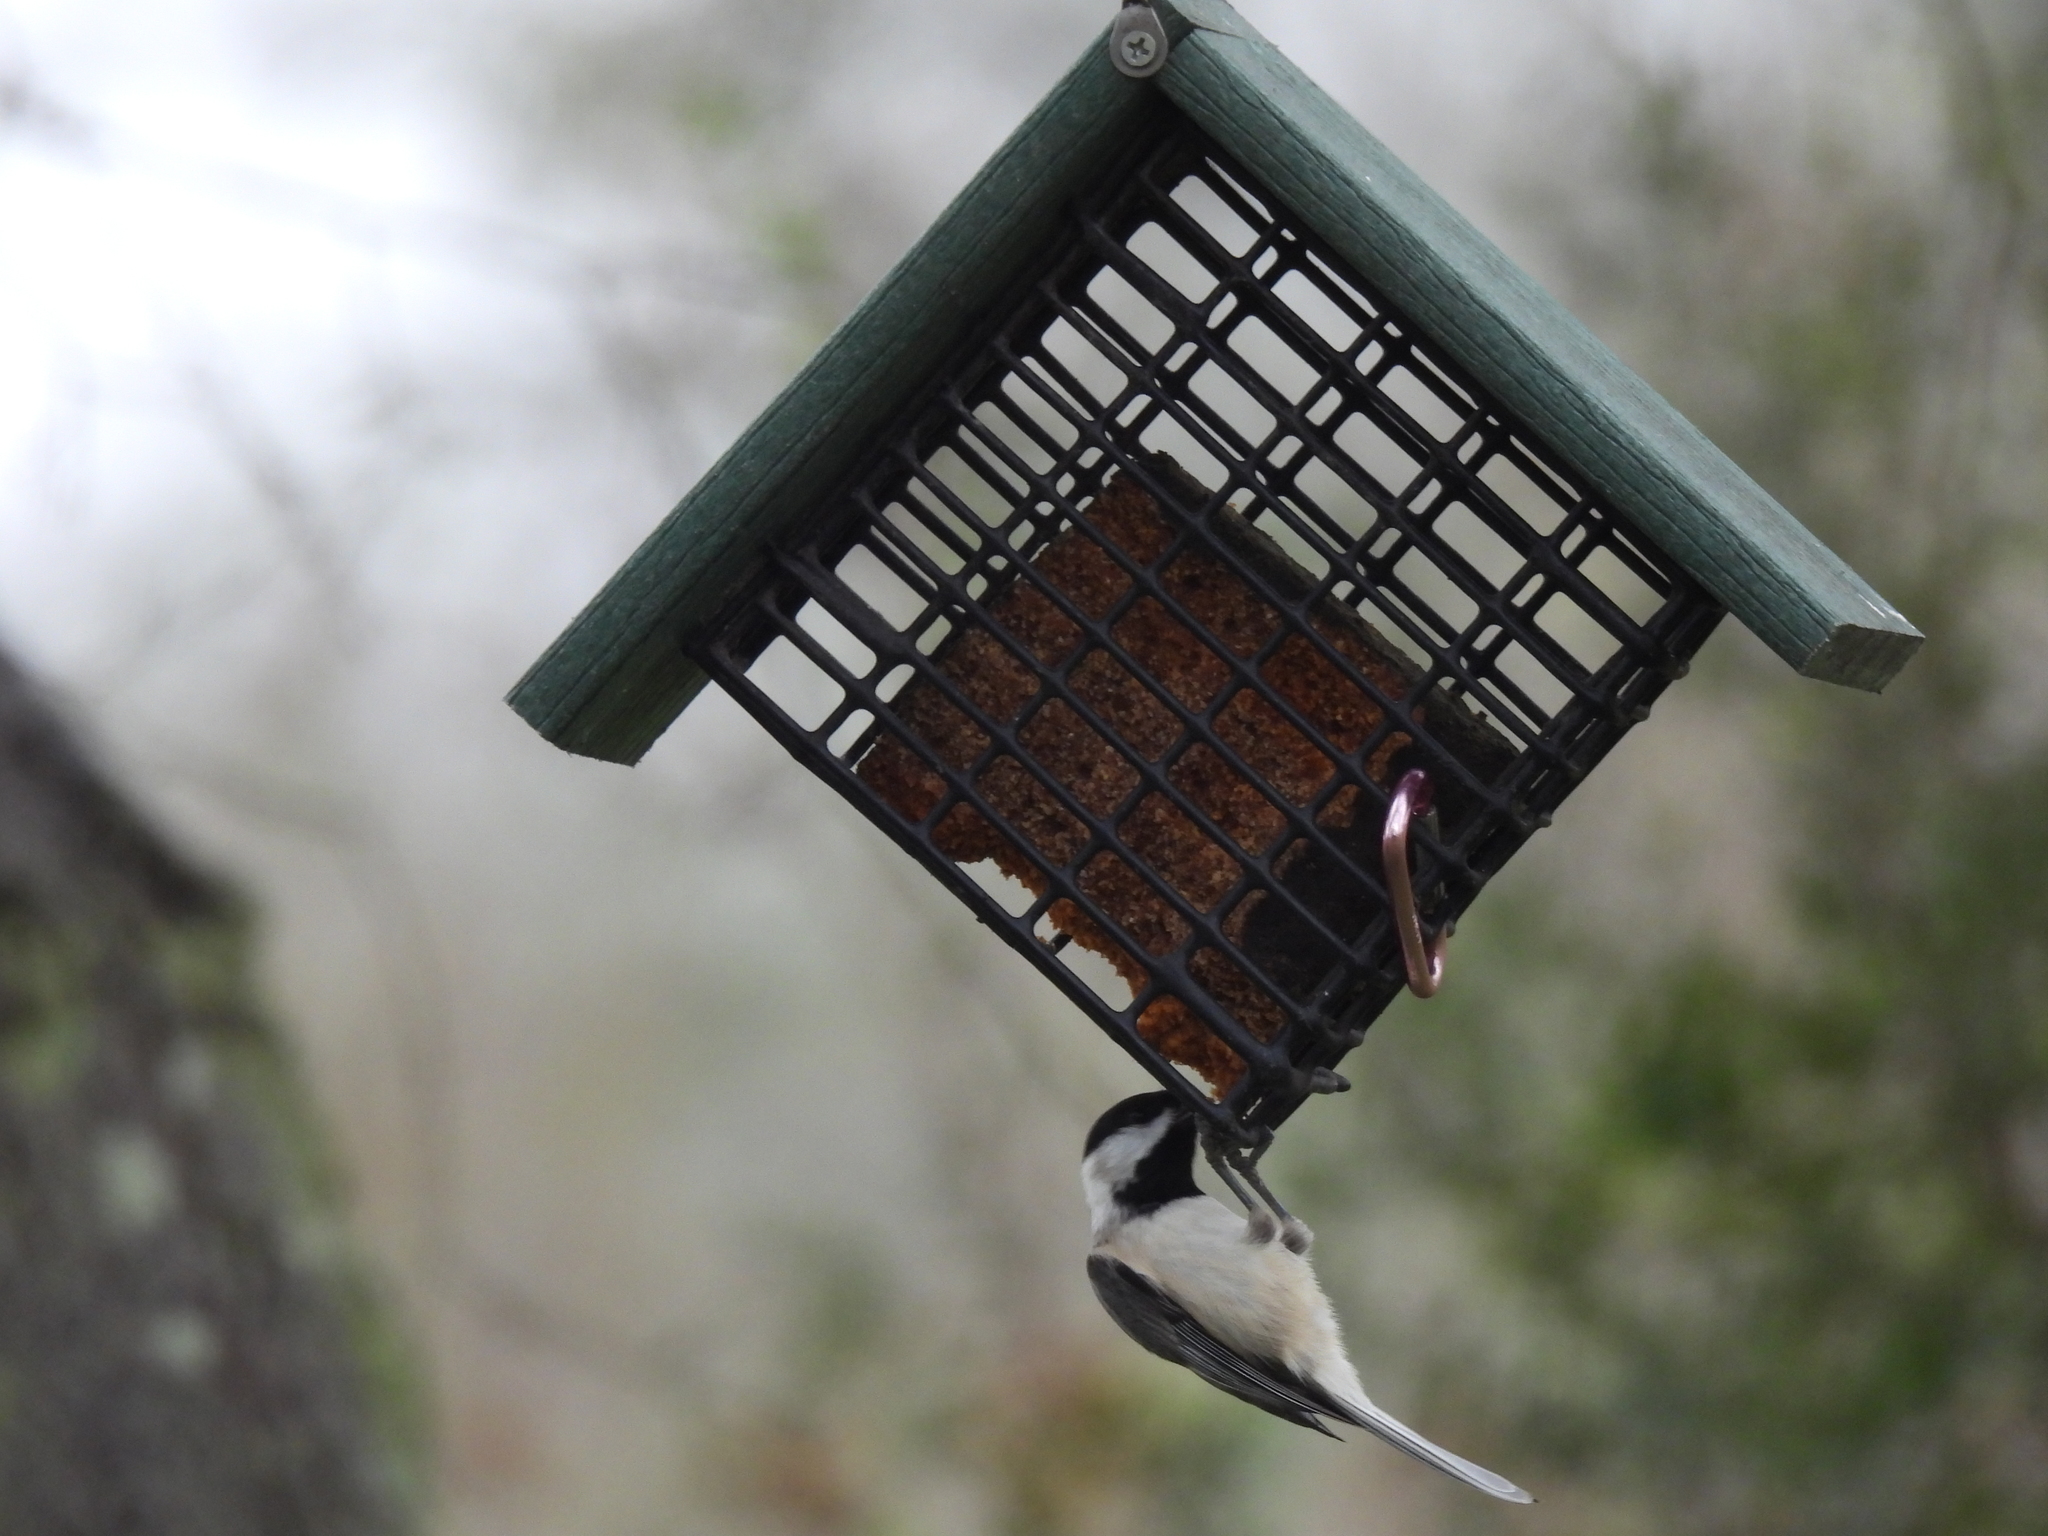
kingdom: Animalia
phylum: Chordata
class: Aves
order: Passeriformes
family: Paridae
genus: Poecile
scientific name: Poecile carolinensis
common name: Carolina chickadee
